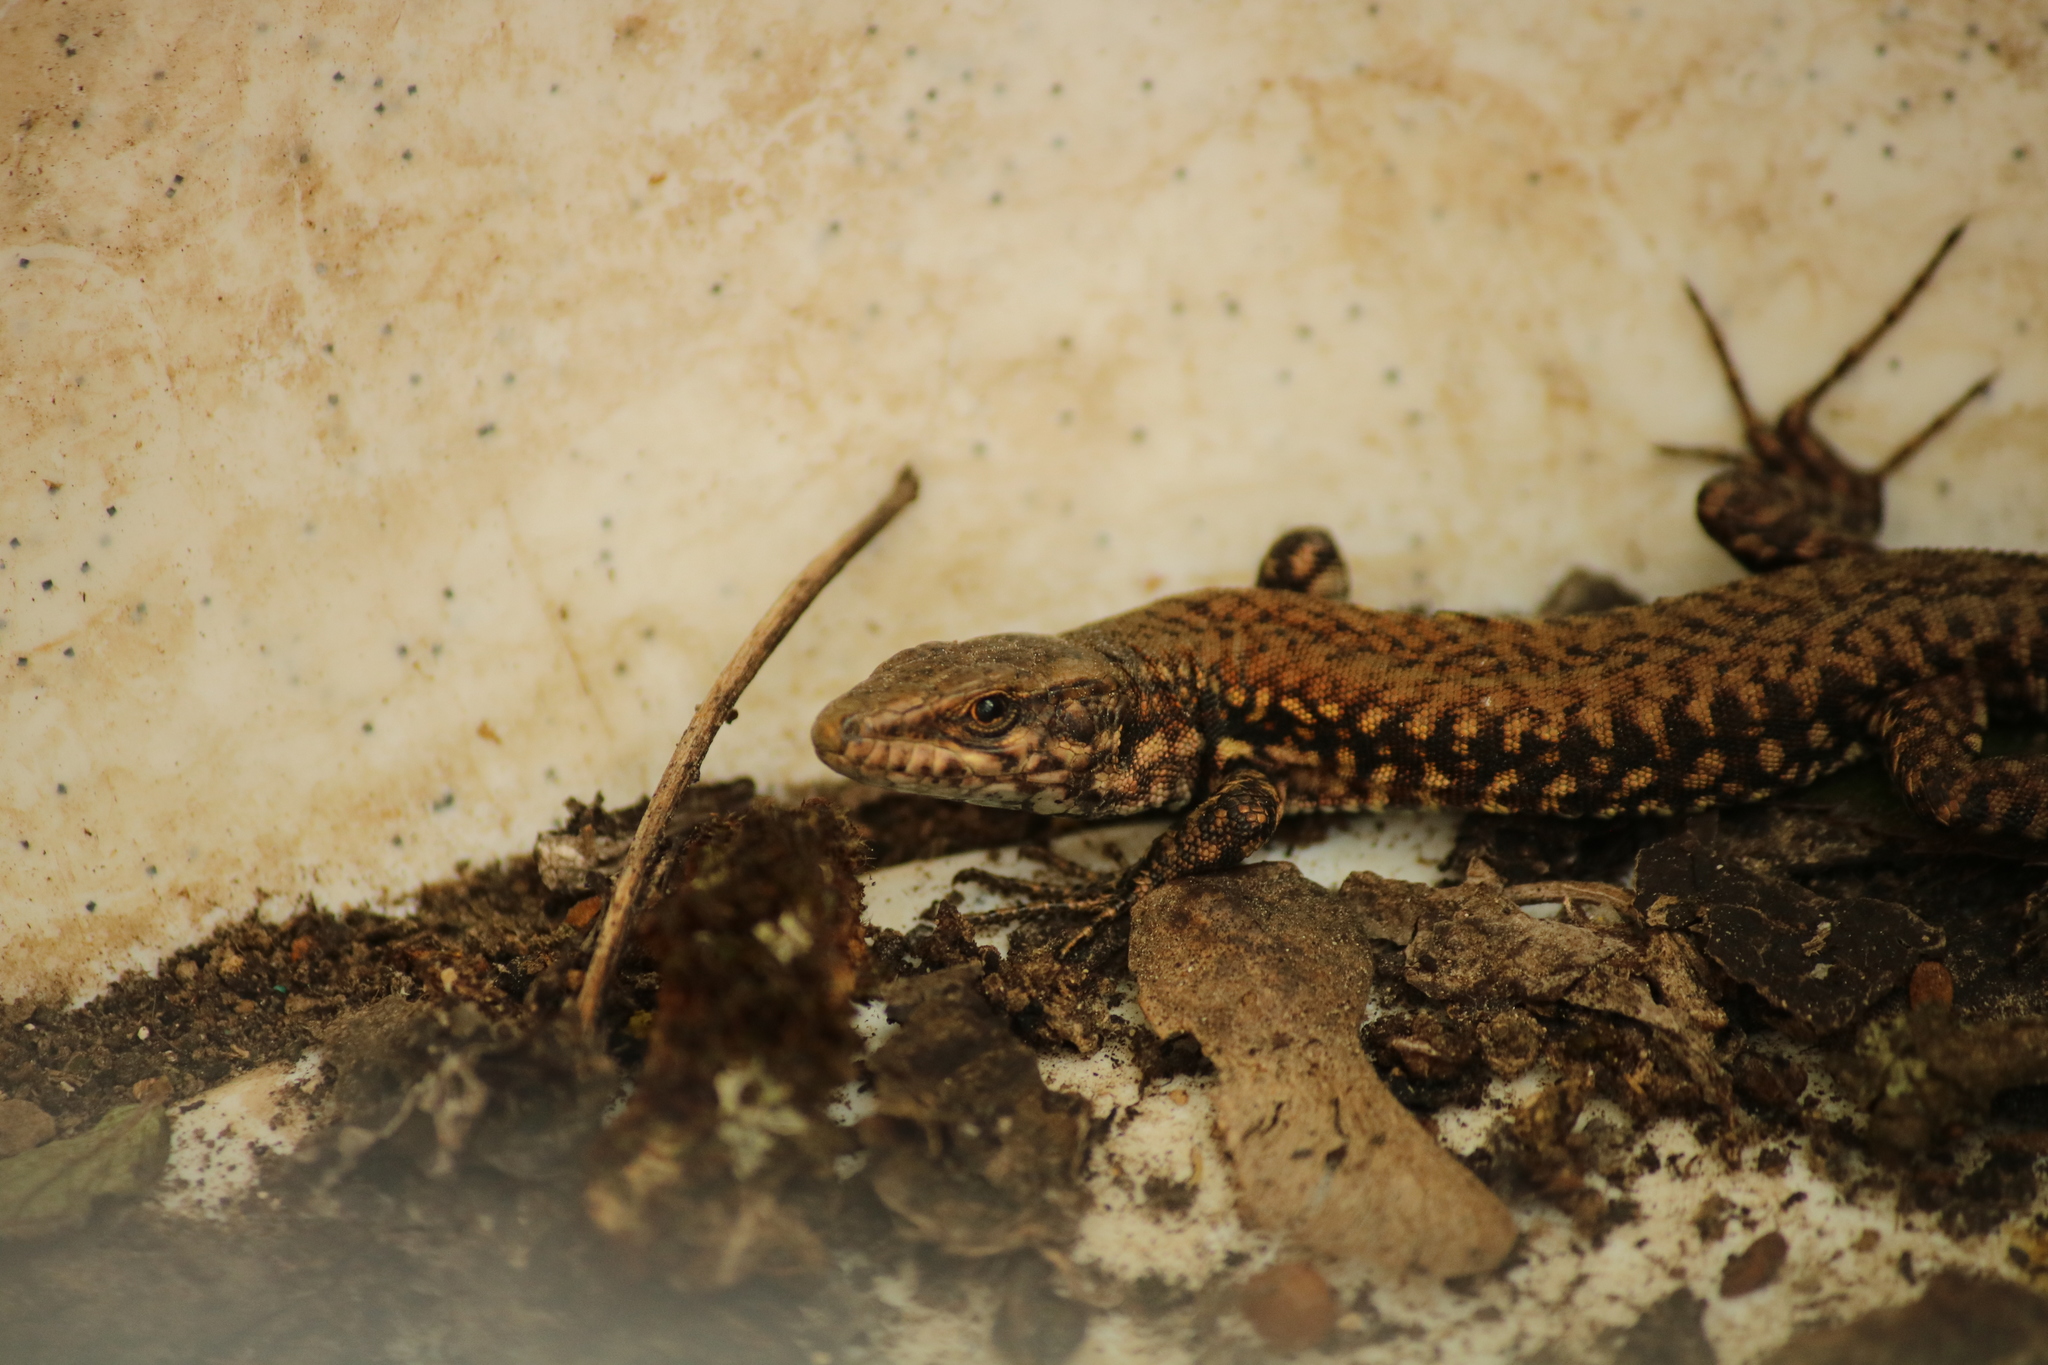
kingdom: Animalia
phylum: Chordata
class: Squamata
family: Lacertidae
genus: Podarcis
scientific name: Podarcis muralis
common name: Common wall lizard
